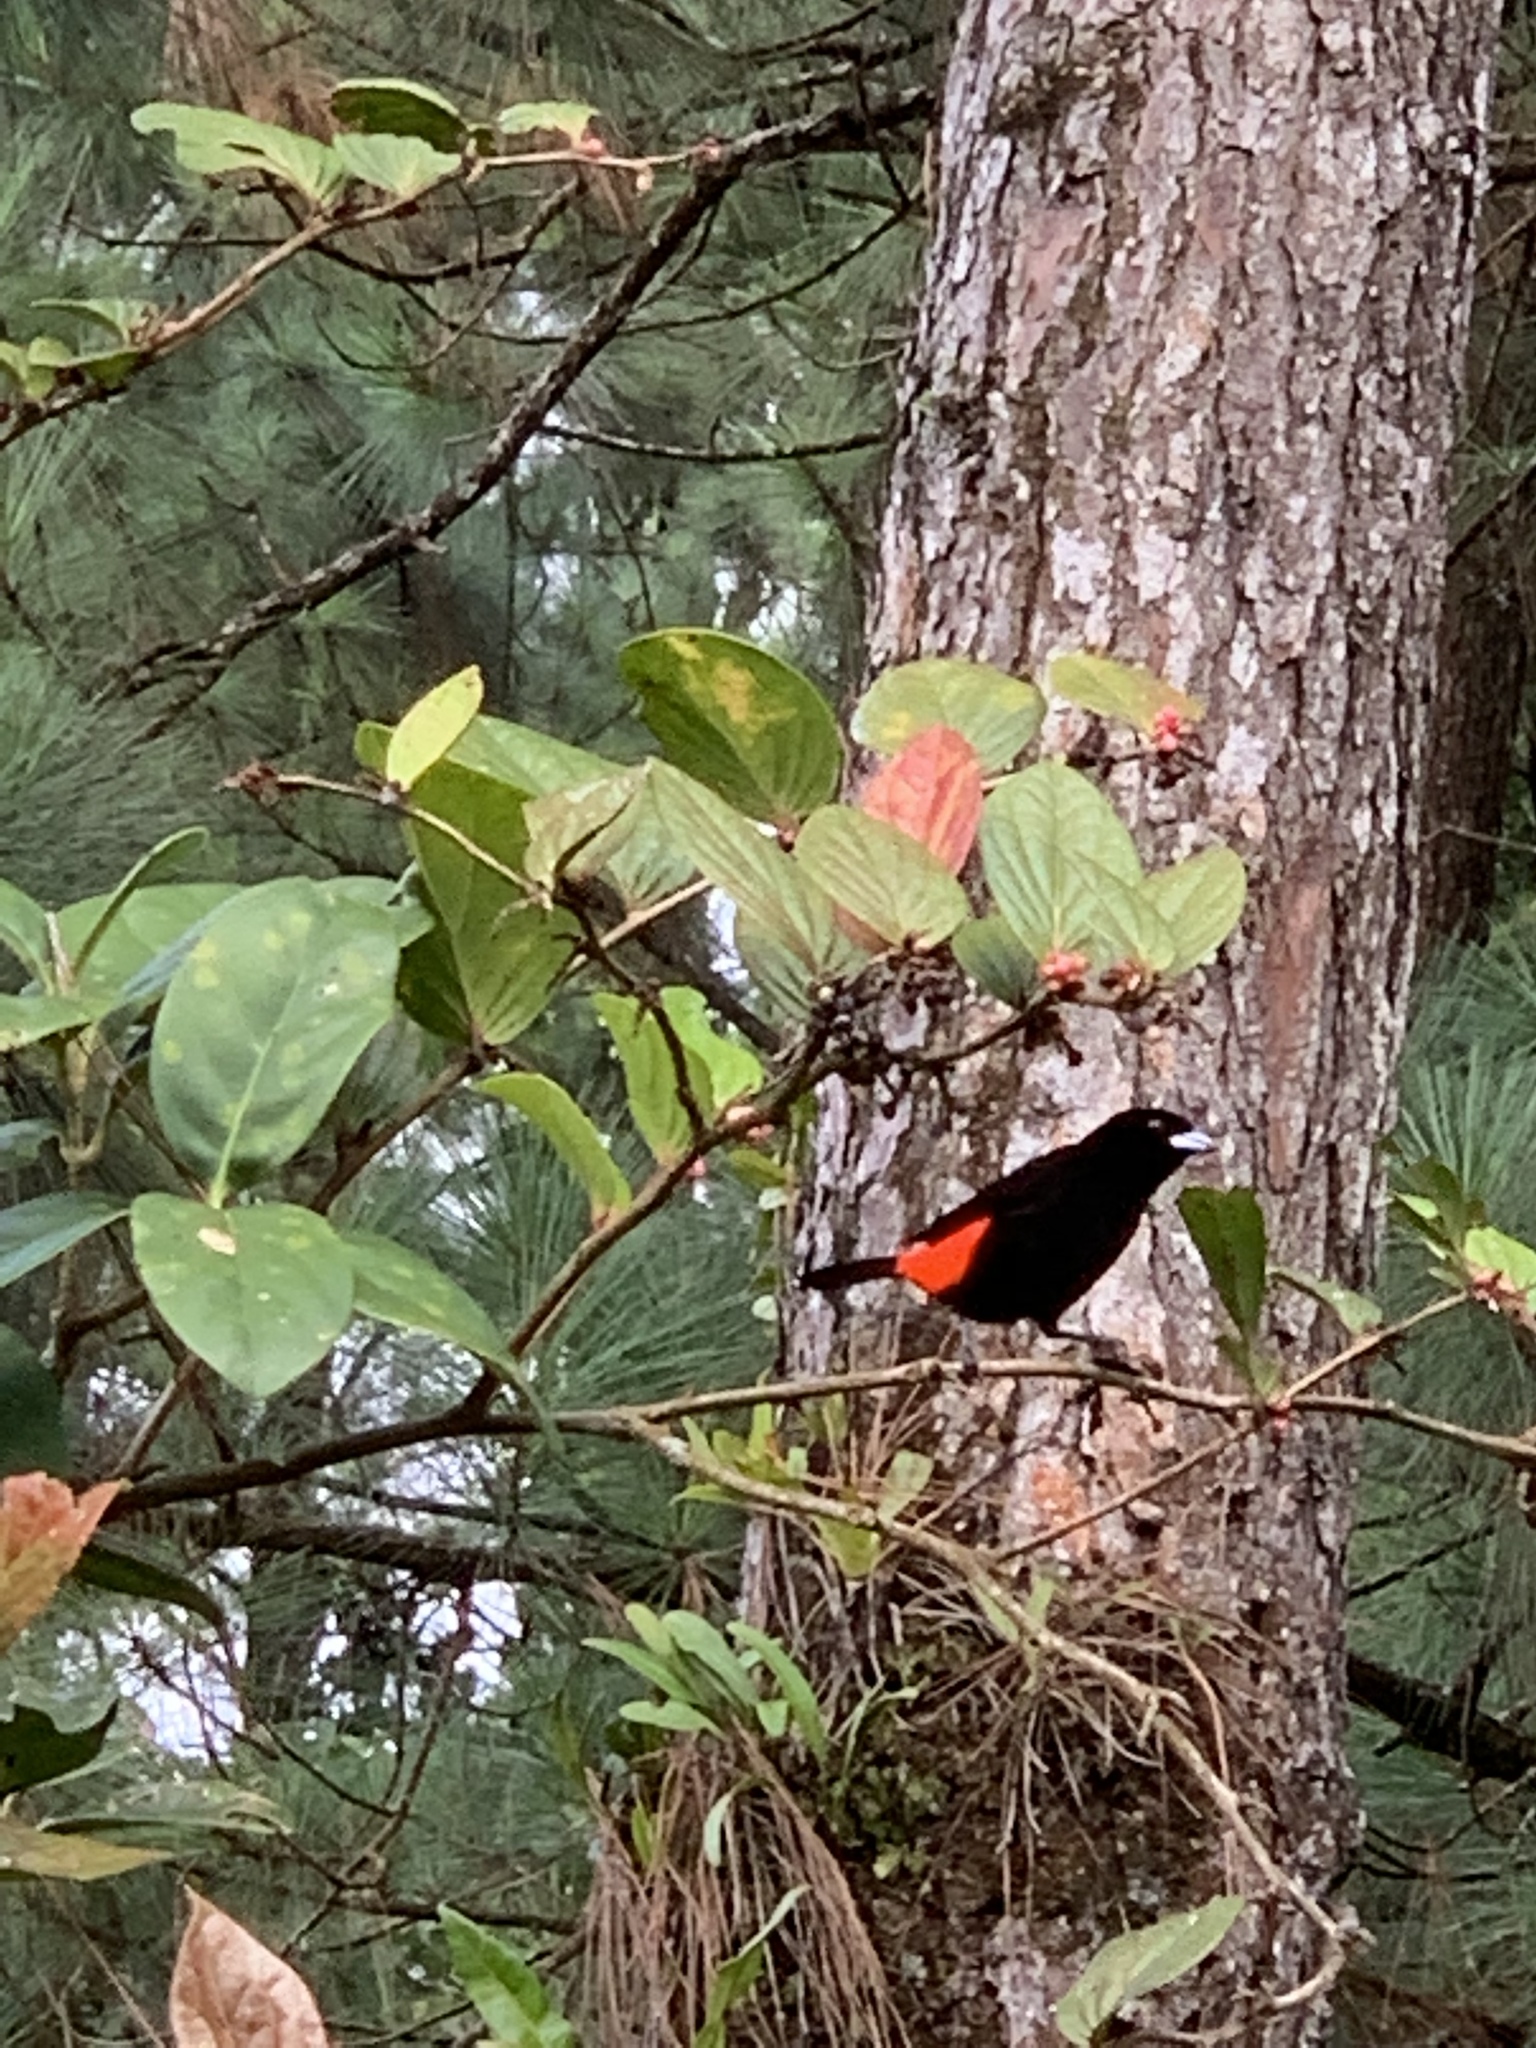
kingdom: Animalia
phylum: Chordata
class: Aves
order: Passeriformes
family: Thraupidae
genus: Ramphocelus
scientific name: Ramphocelus passerinii
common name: Passerini's tanager
